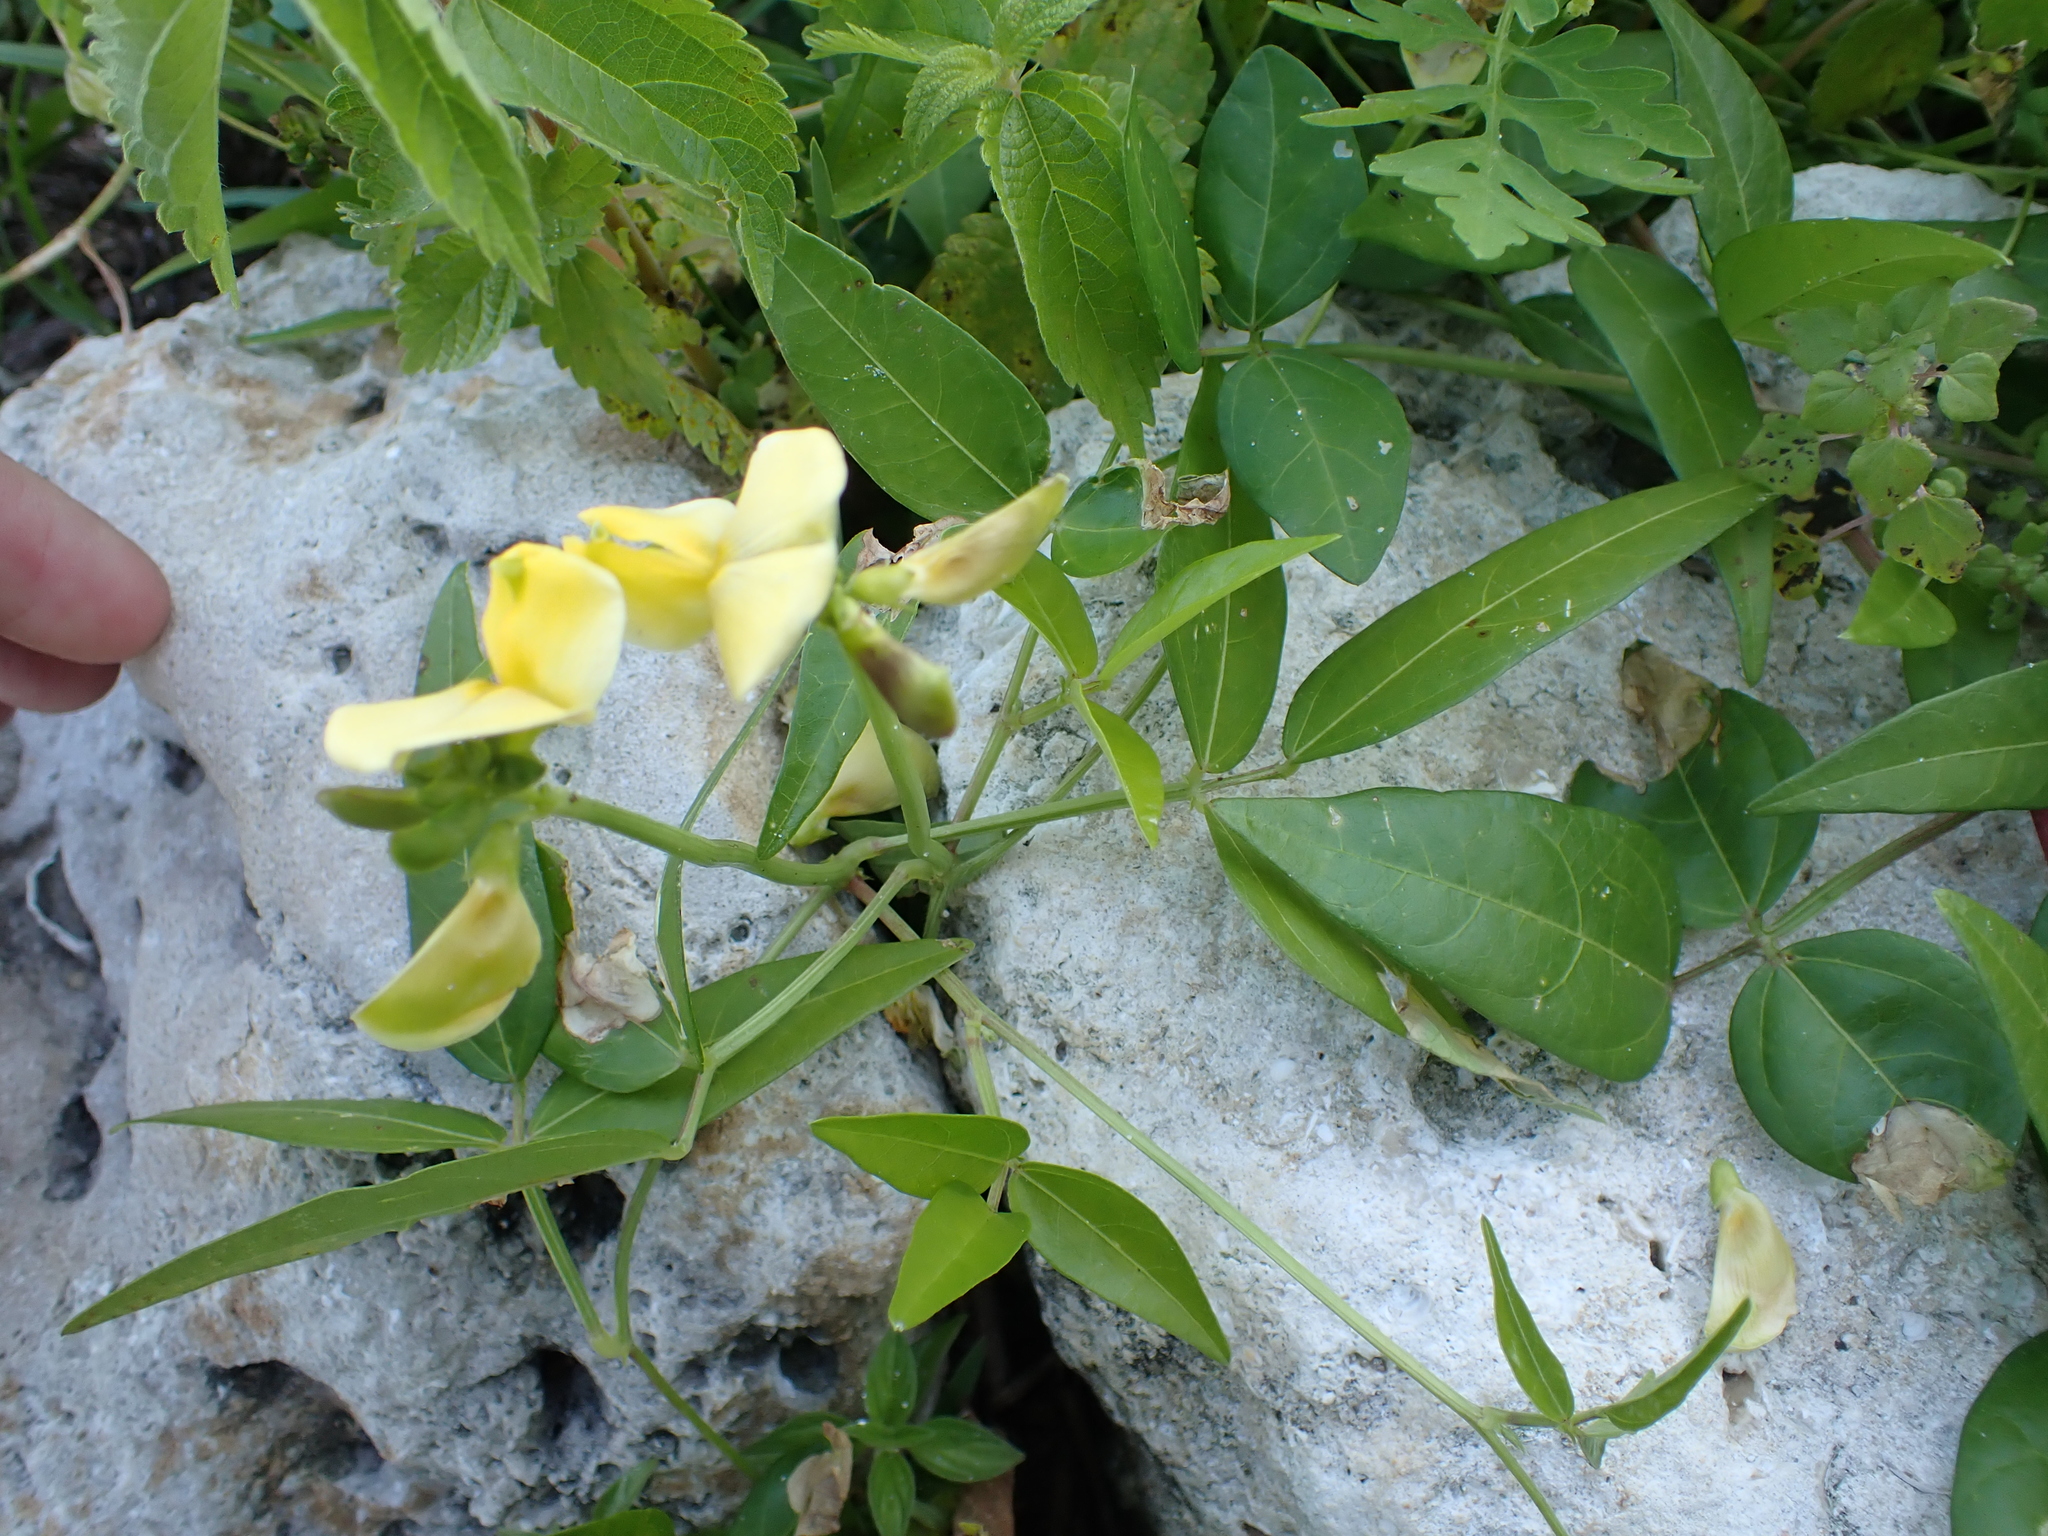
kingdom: Plantae
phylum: Tracheophyta
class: Magnoliopsida
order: Fabales
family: Fabaceae
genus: Vigna
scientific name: Vigna luteola
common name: Hairypod cowpea
